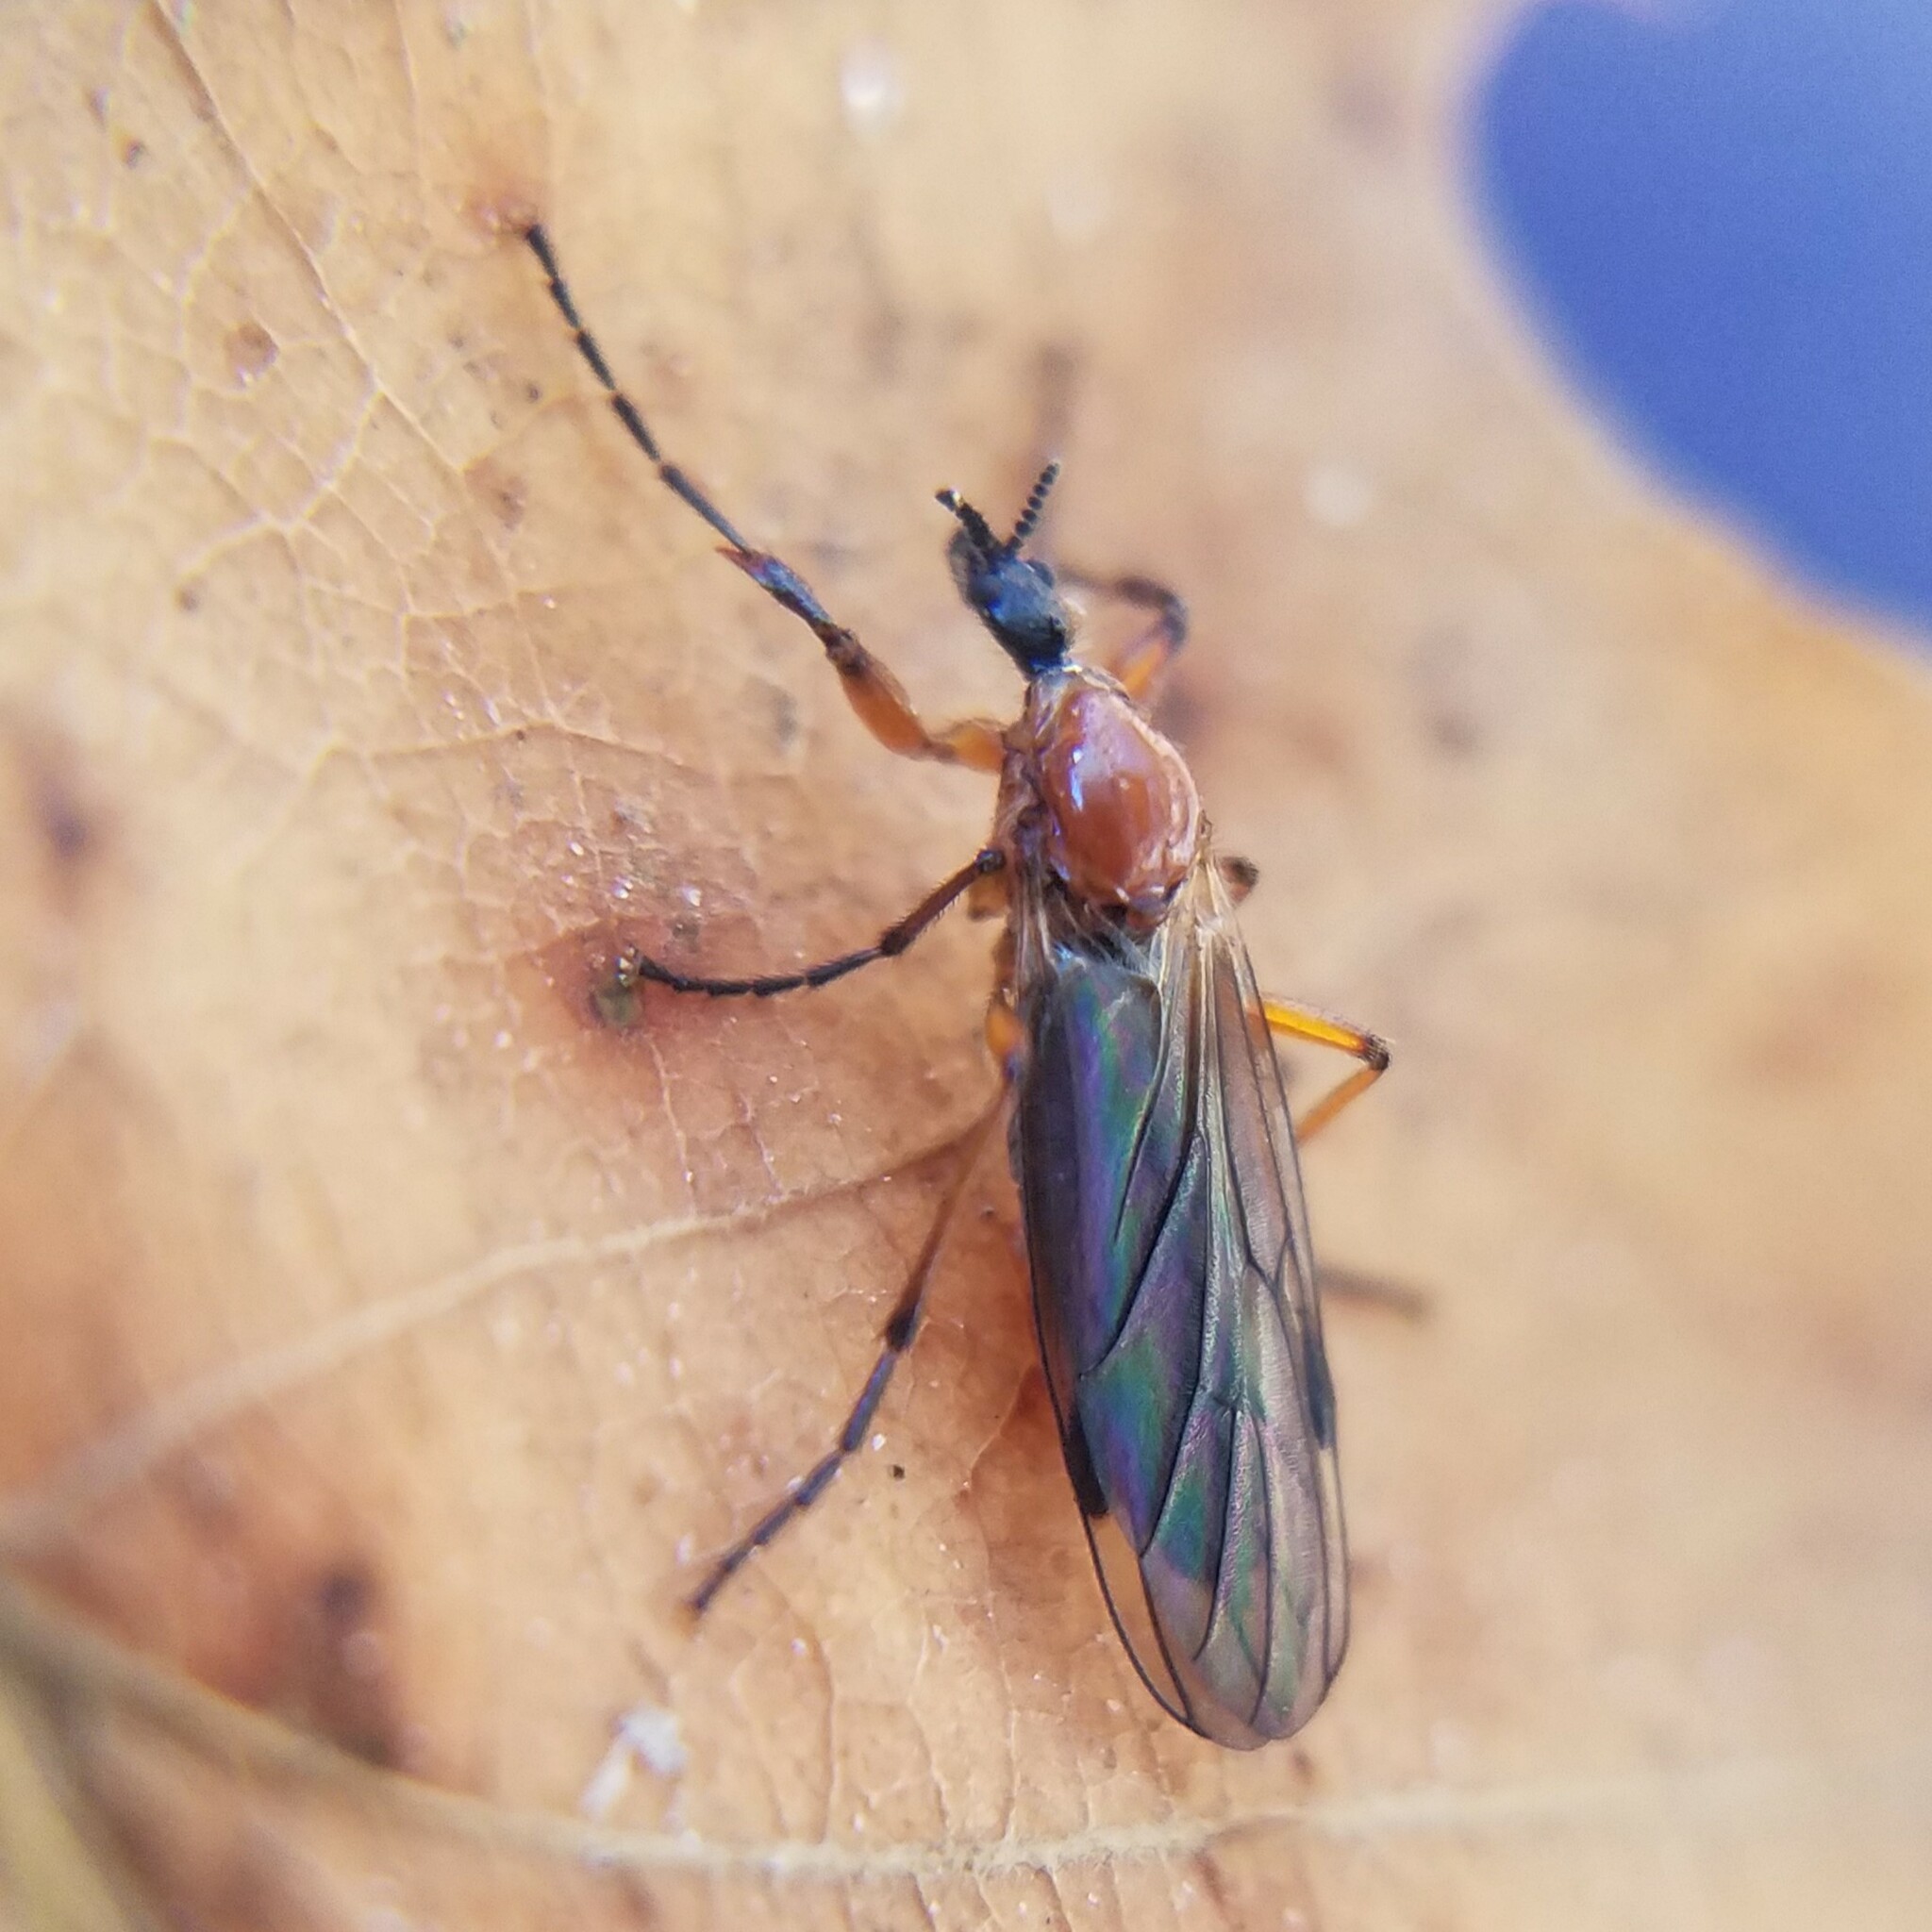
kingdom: Animalia
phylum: Arthropoda
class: Insecta
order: Diptera
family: Bibionidae
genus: Bibio
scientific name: Bibio longipes
